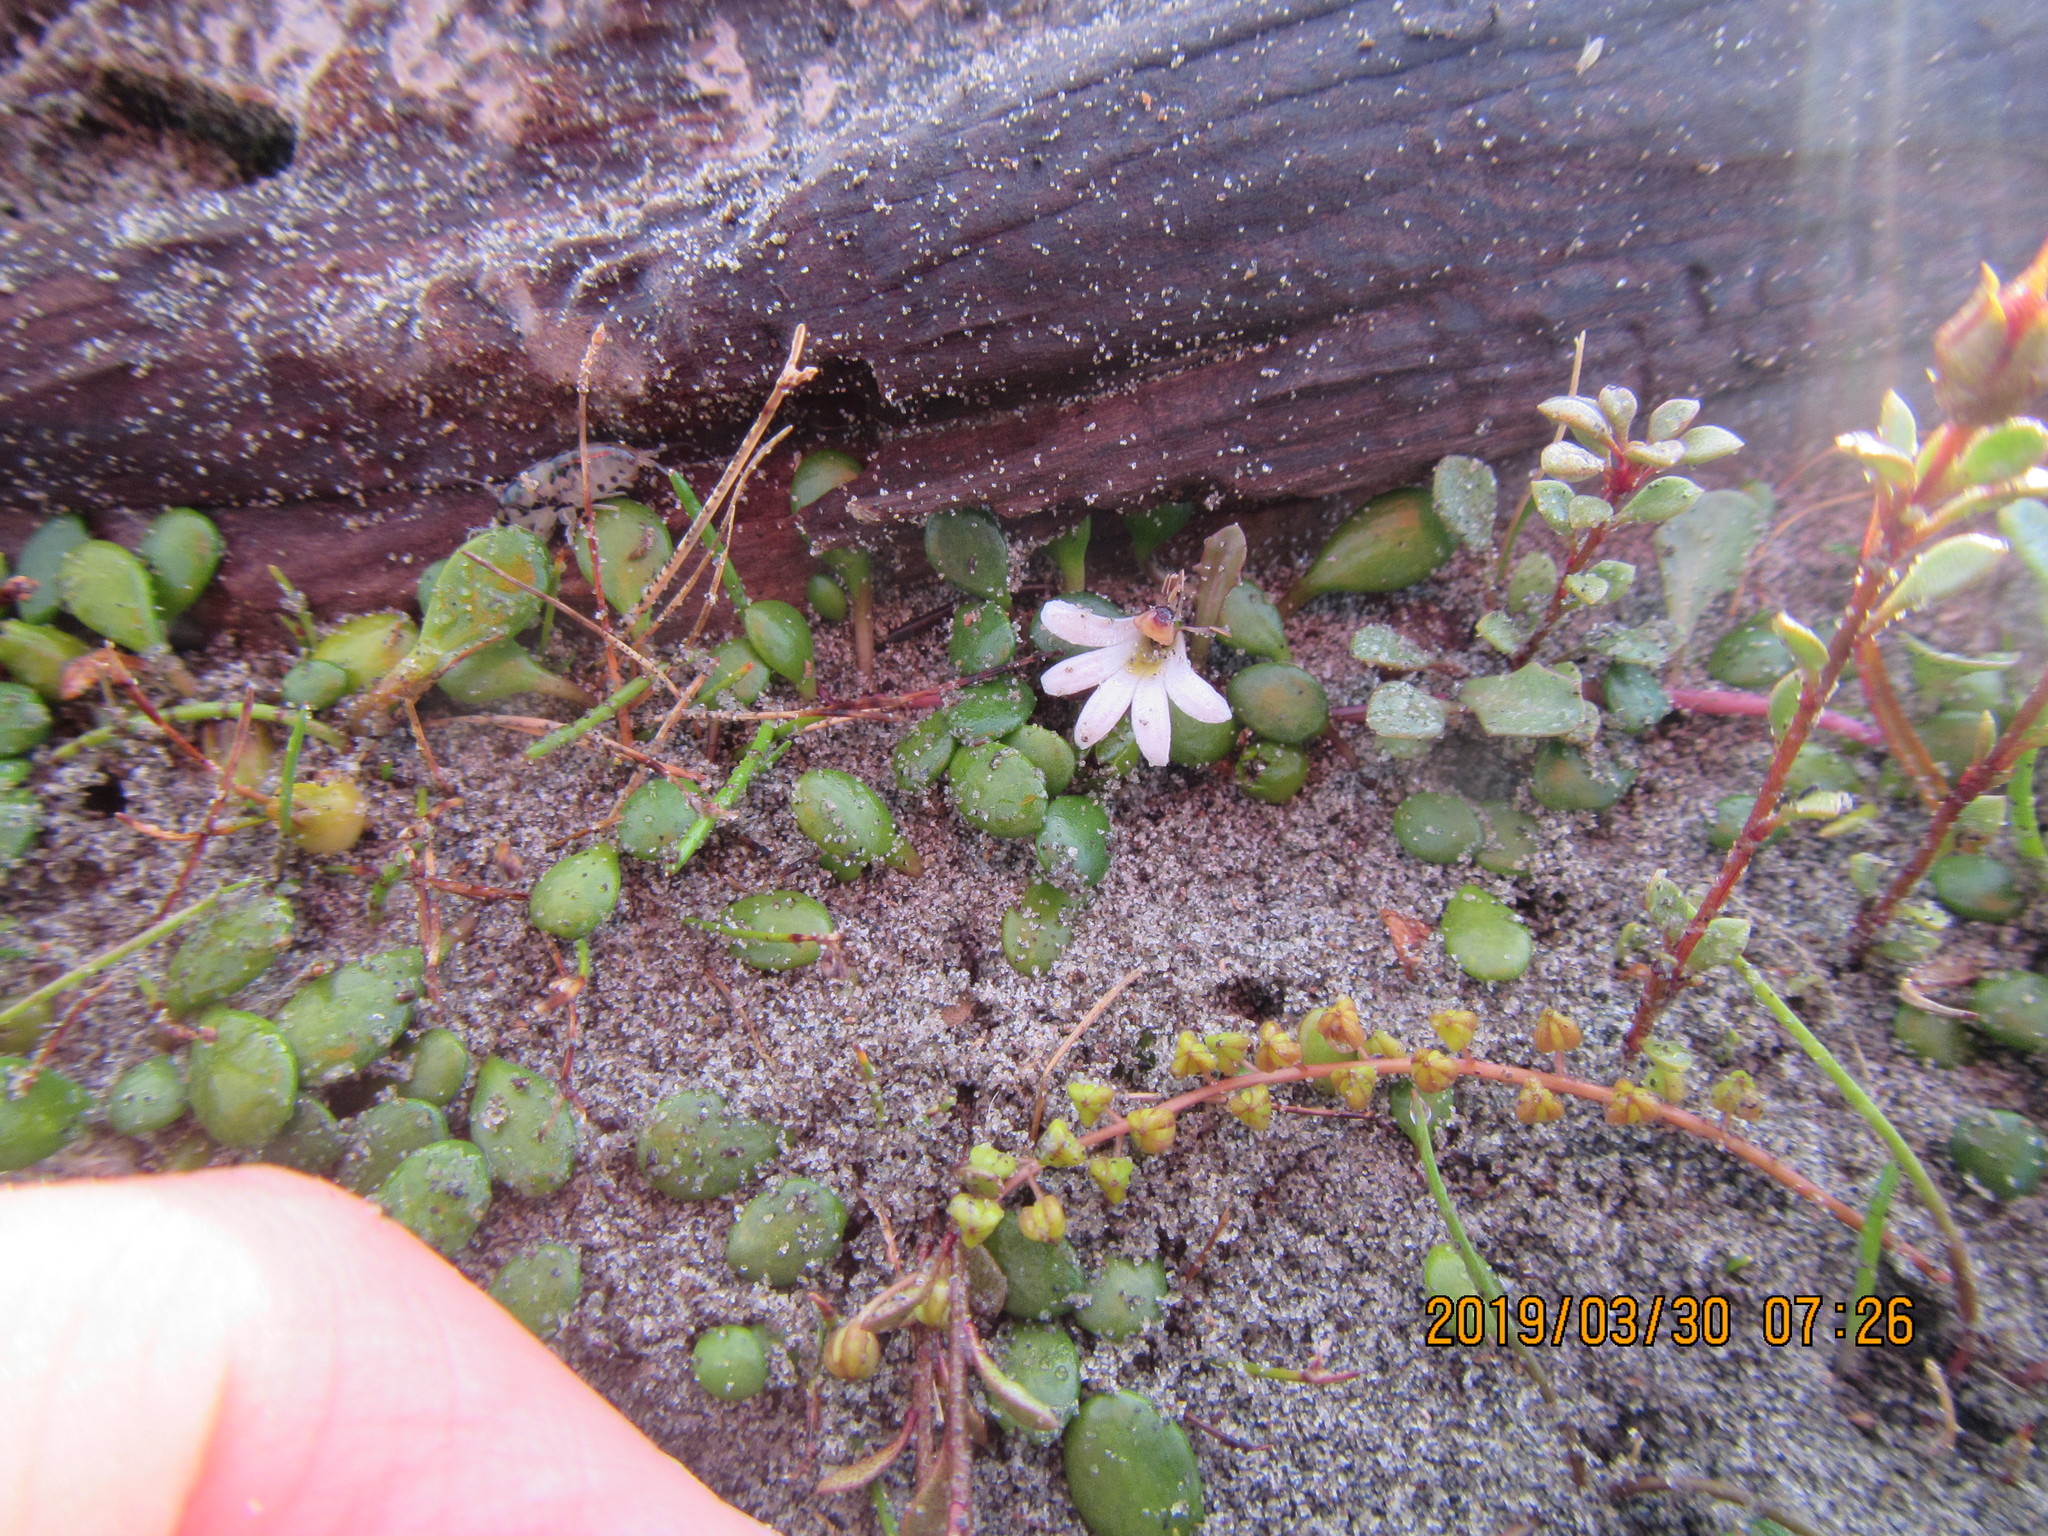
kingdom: Plantae
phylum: Tracheophyta
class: Magnoliopsida
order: Asterales
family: Goodeniaceae
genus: Goodenia
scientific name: Goodenia heenanii
